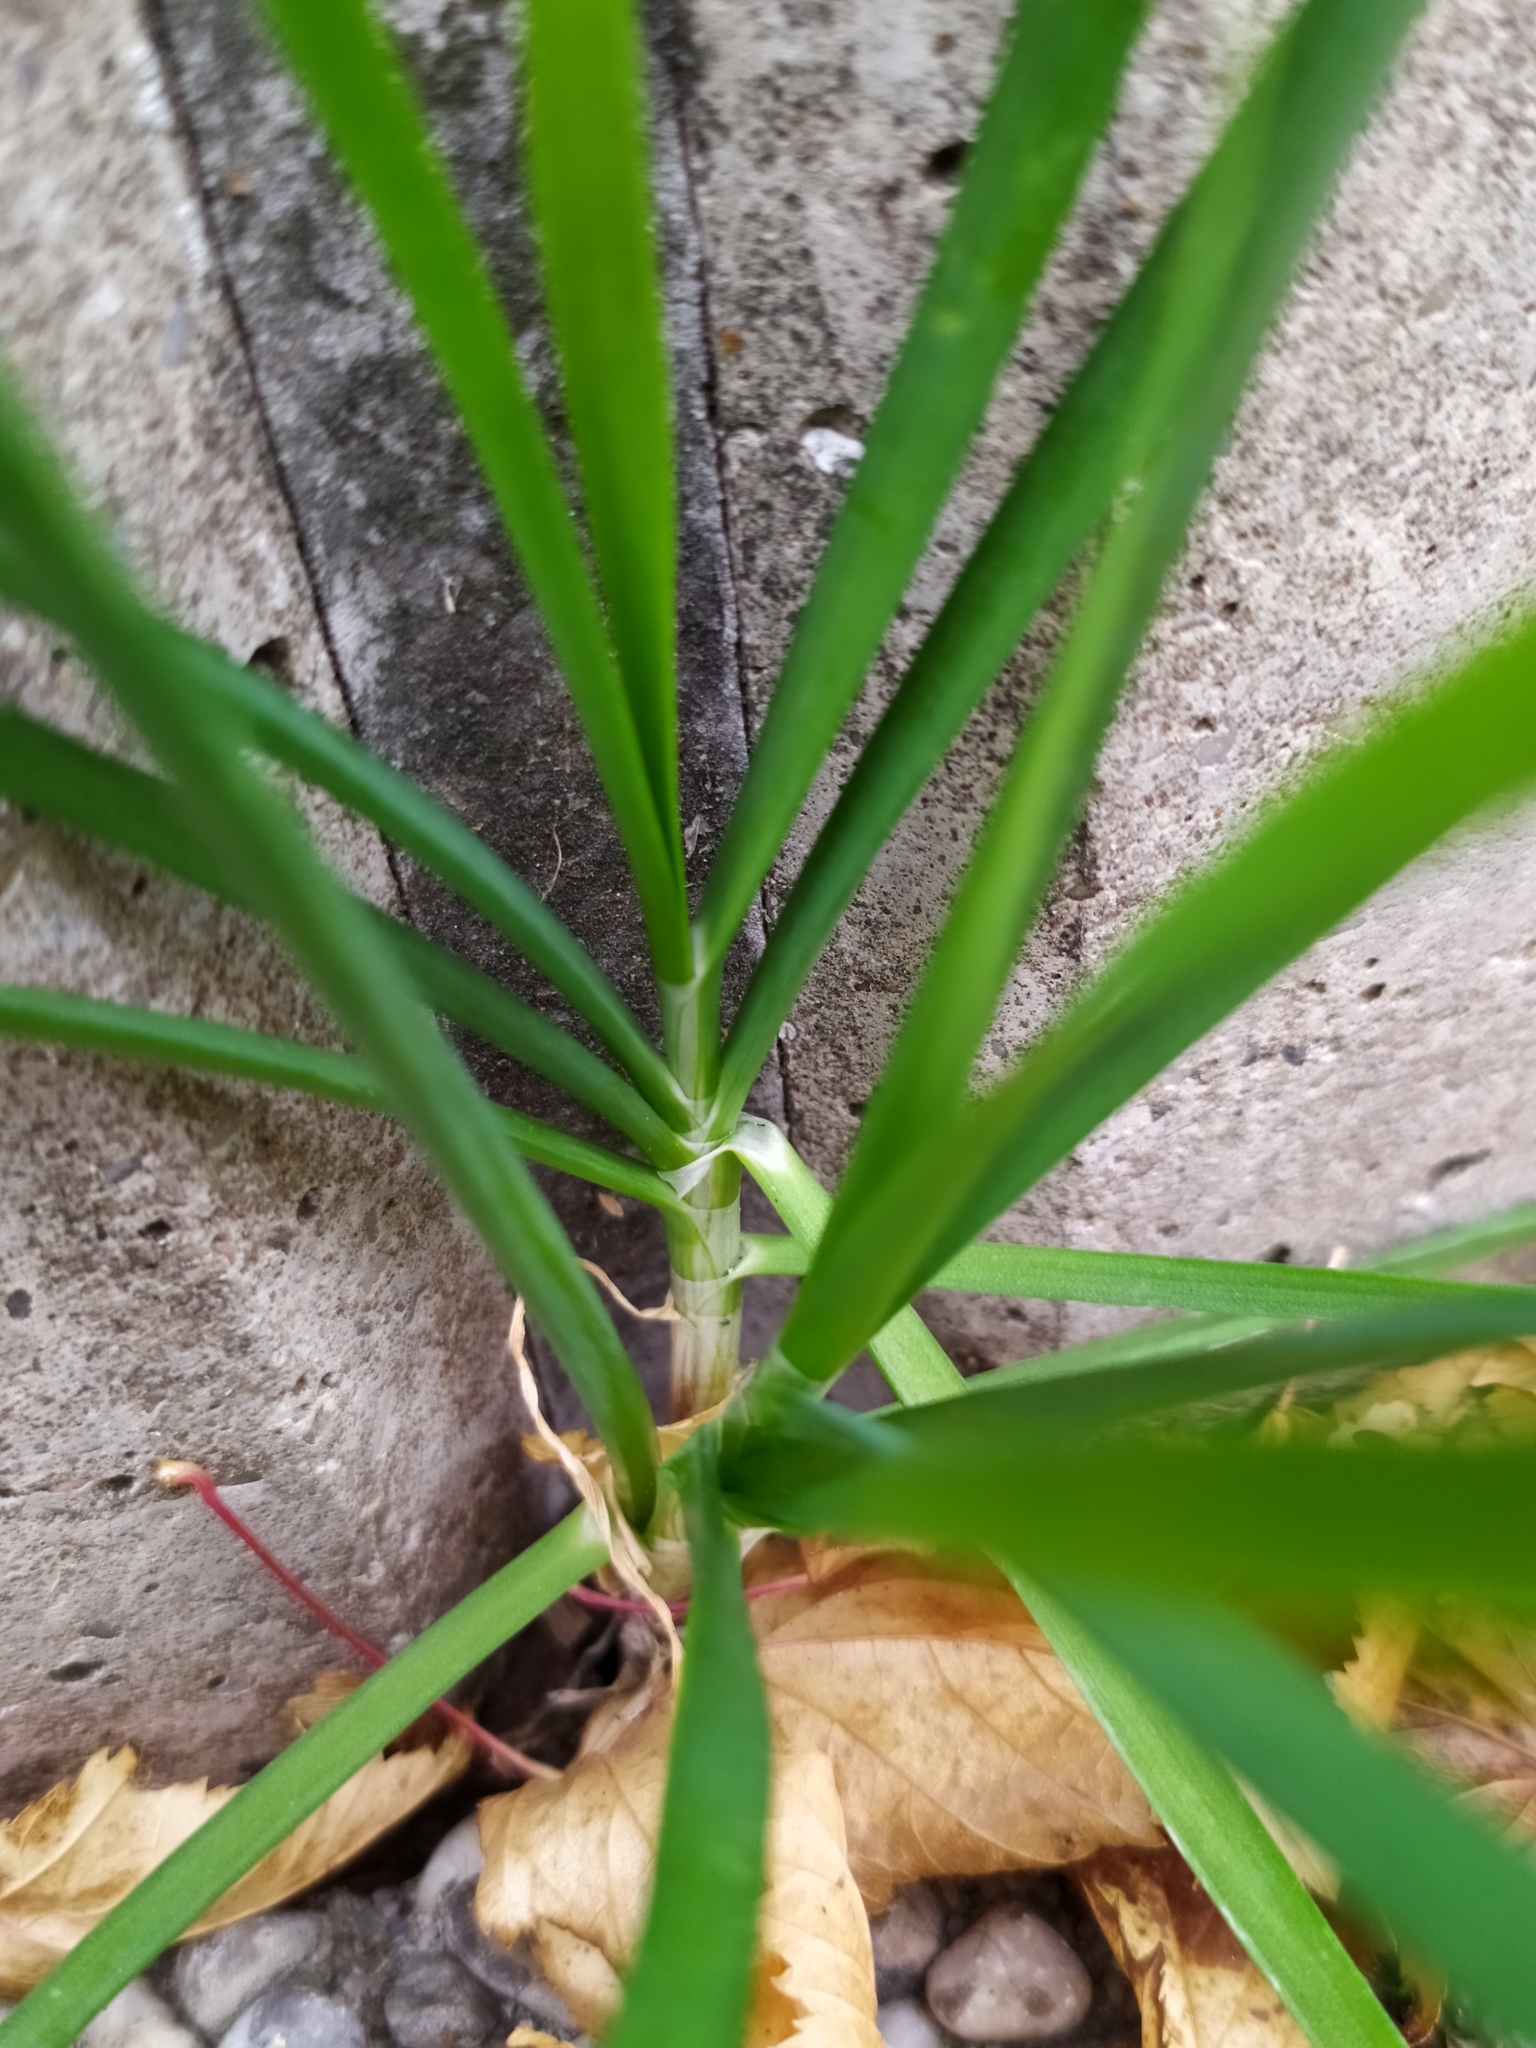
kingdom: Plantae
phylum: Tracheophyta
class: Liliopsida
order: Asparagales
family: Amaryllidaceae
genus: Allium
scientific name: Allium tuberosum
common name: Chinese chives
